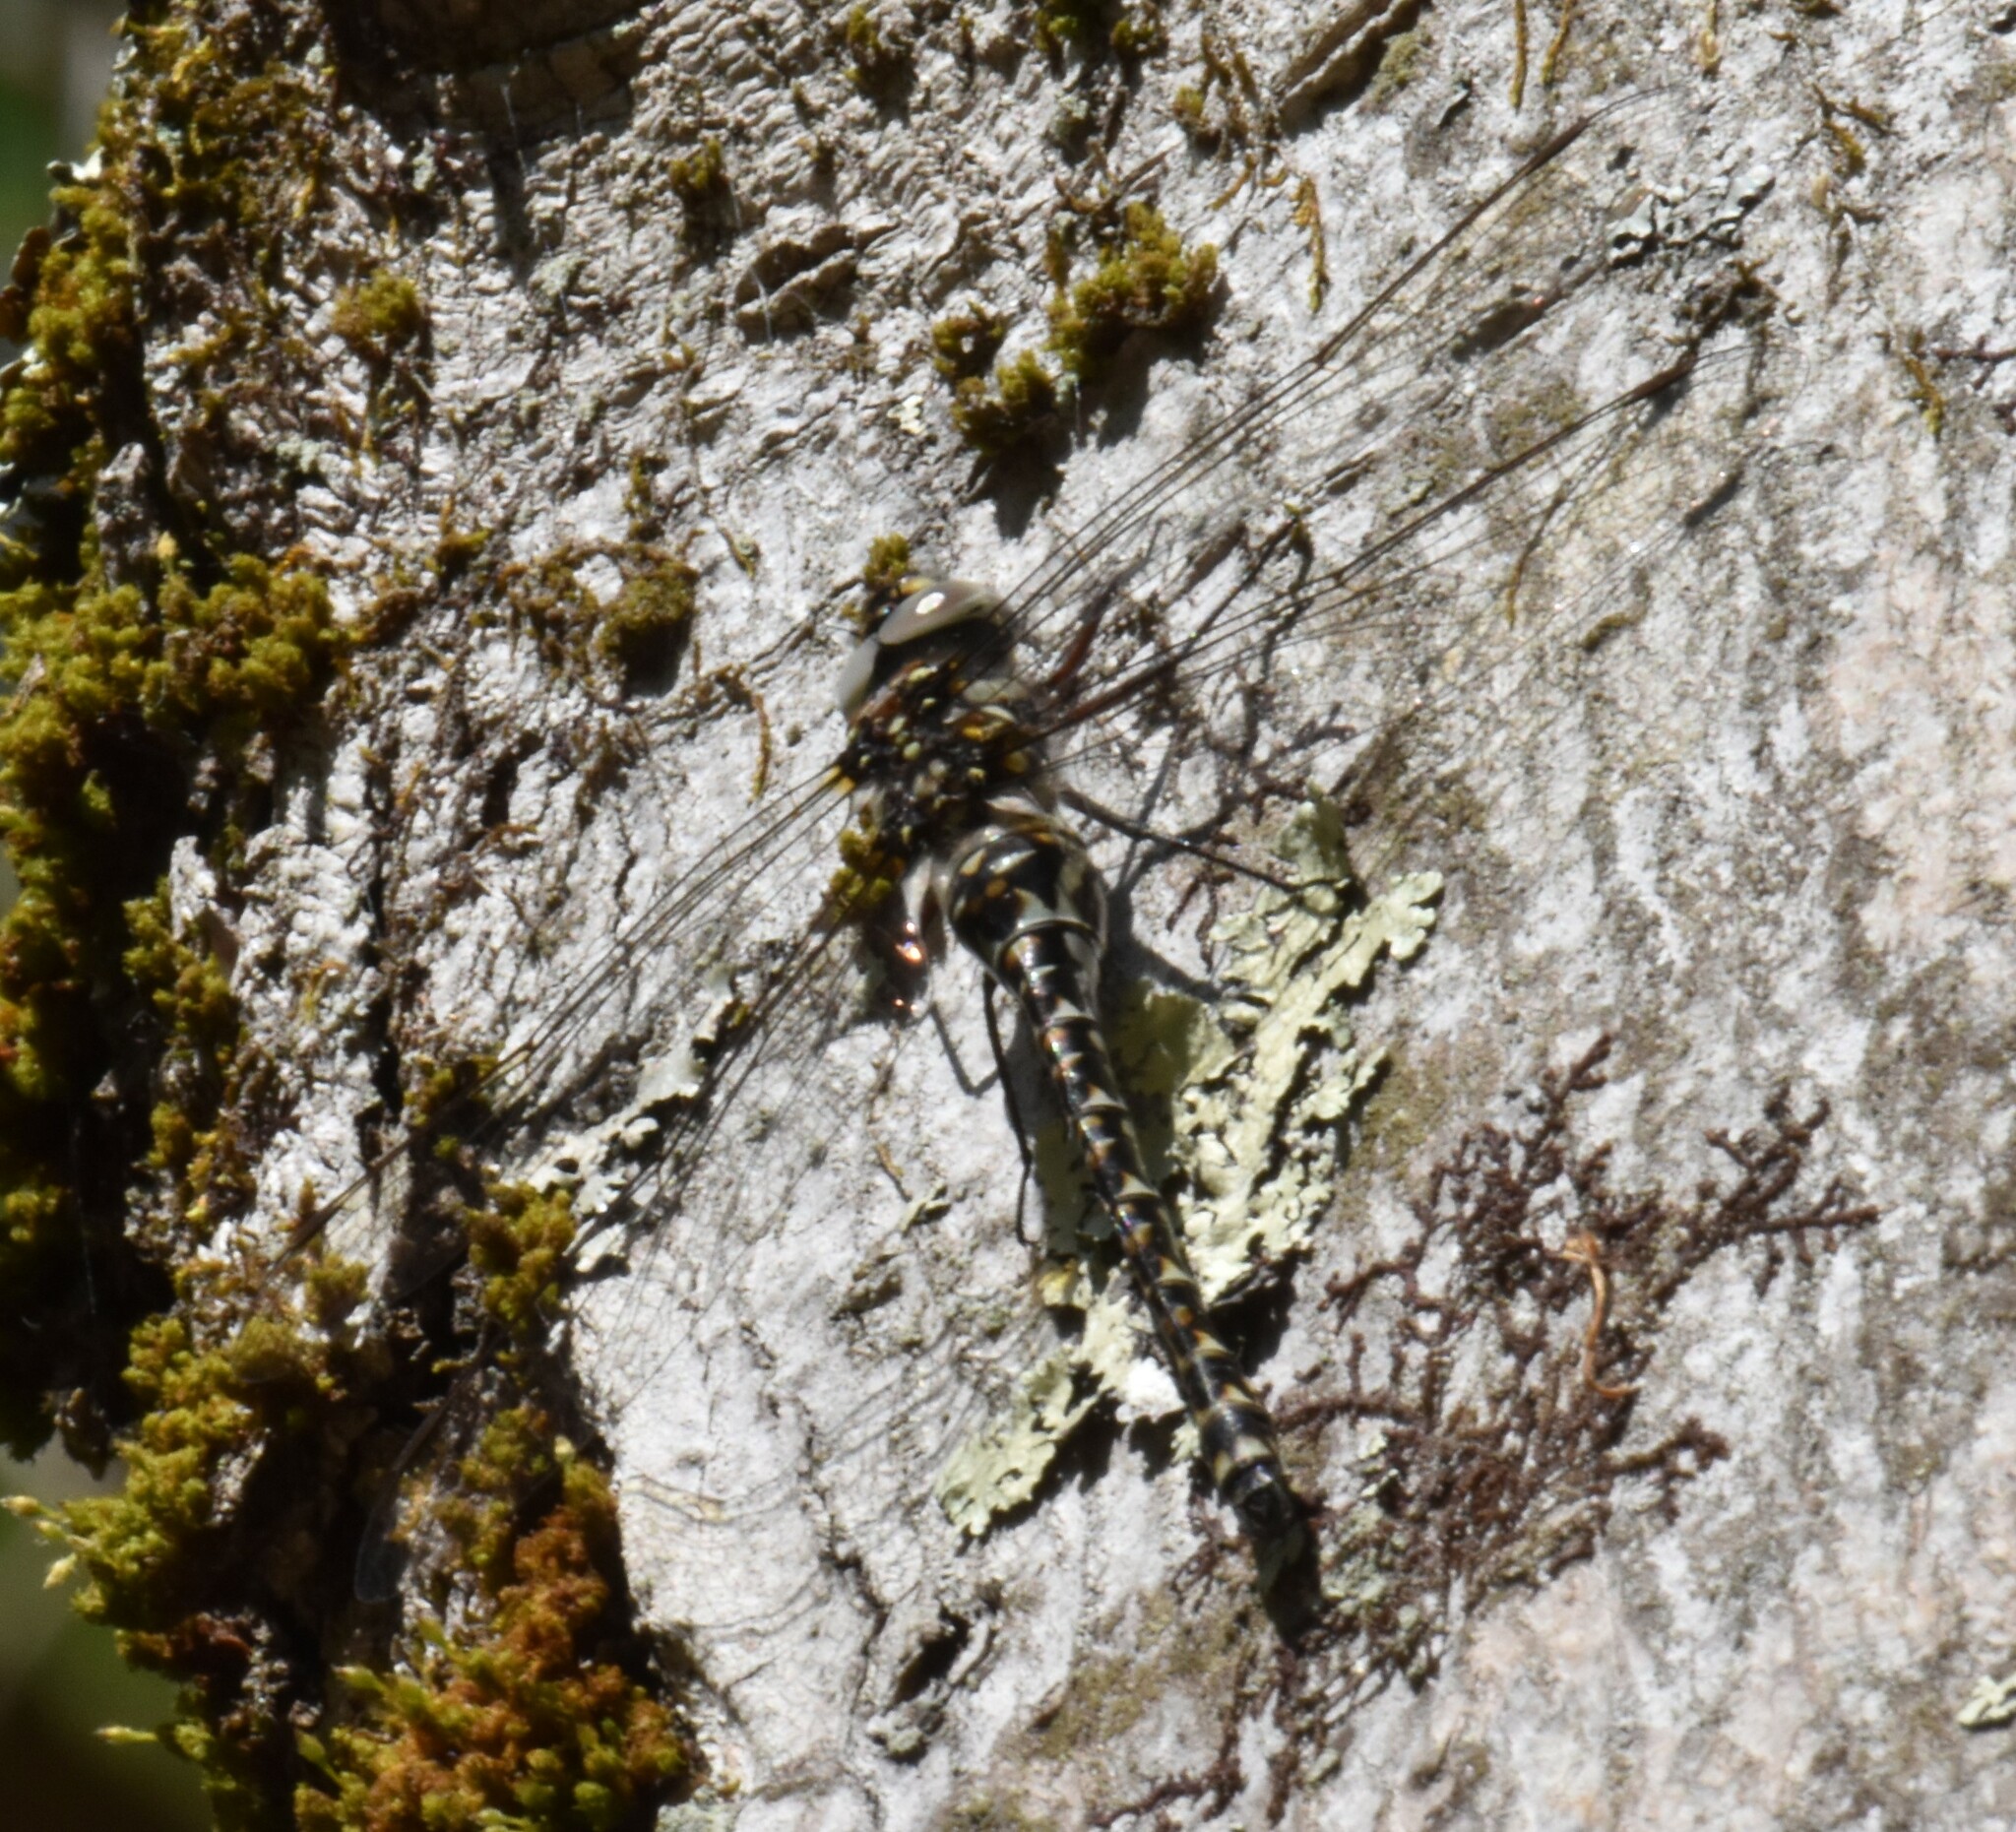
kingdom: Animalia
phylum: Arthropoda
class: Insecta
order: Odonata
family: Aeshnidae
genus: Gomphaeschna
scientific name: Gomphaeschna furcillata
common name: Harlequin darner
